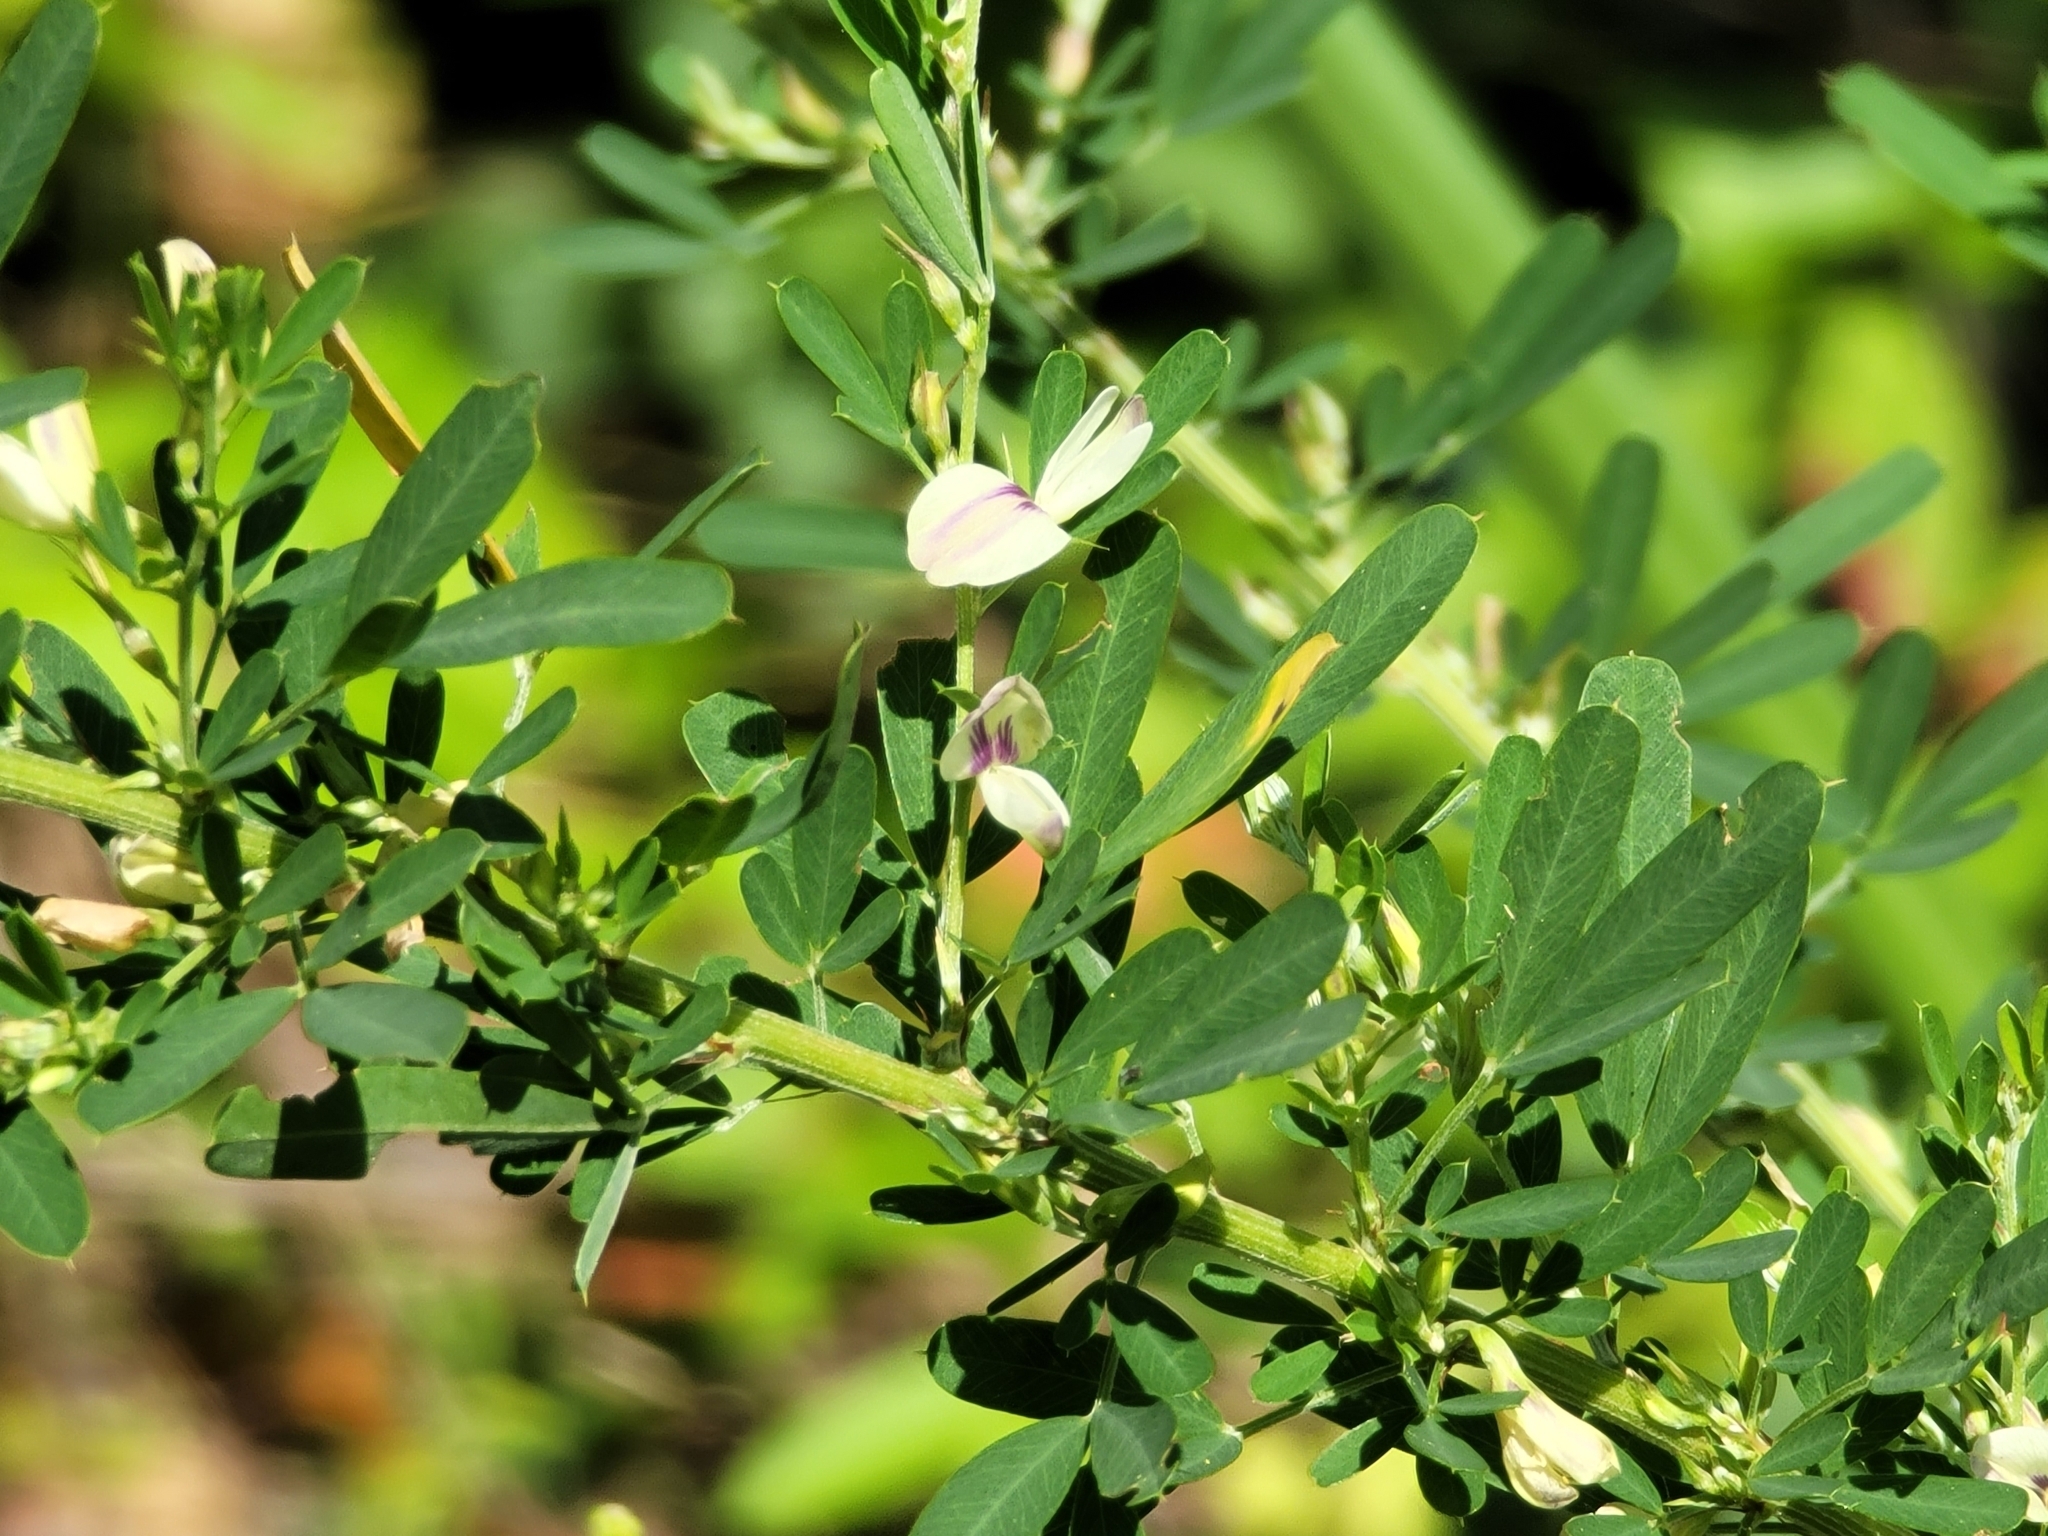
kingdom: Plantae
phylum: Tracheophyta
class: Magnoliopsida
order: Fabales
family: Fabaceae
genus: Lespedeza
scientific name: Lespedeza cuneata
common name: Chinese bush-clover
